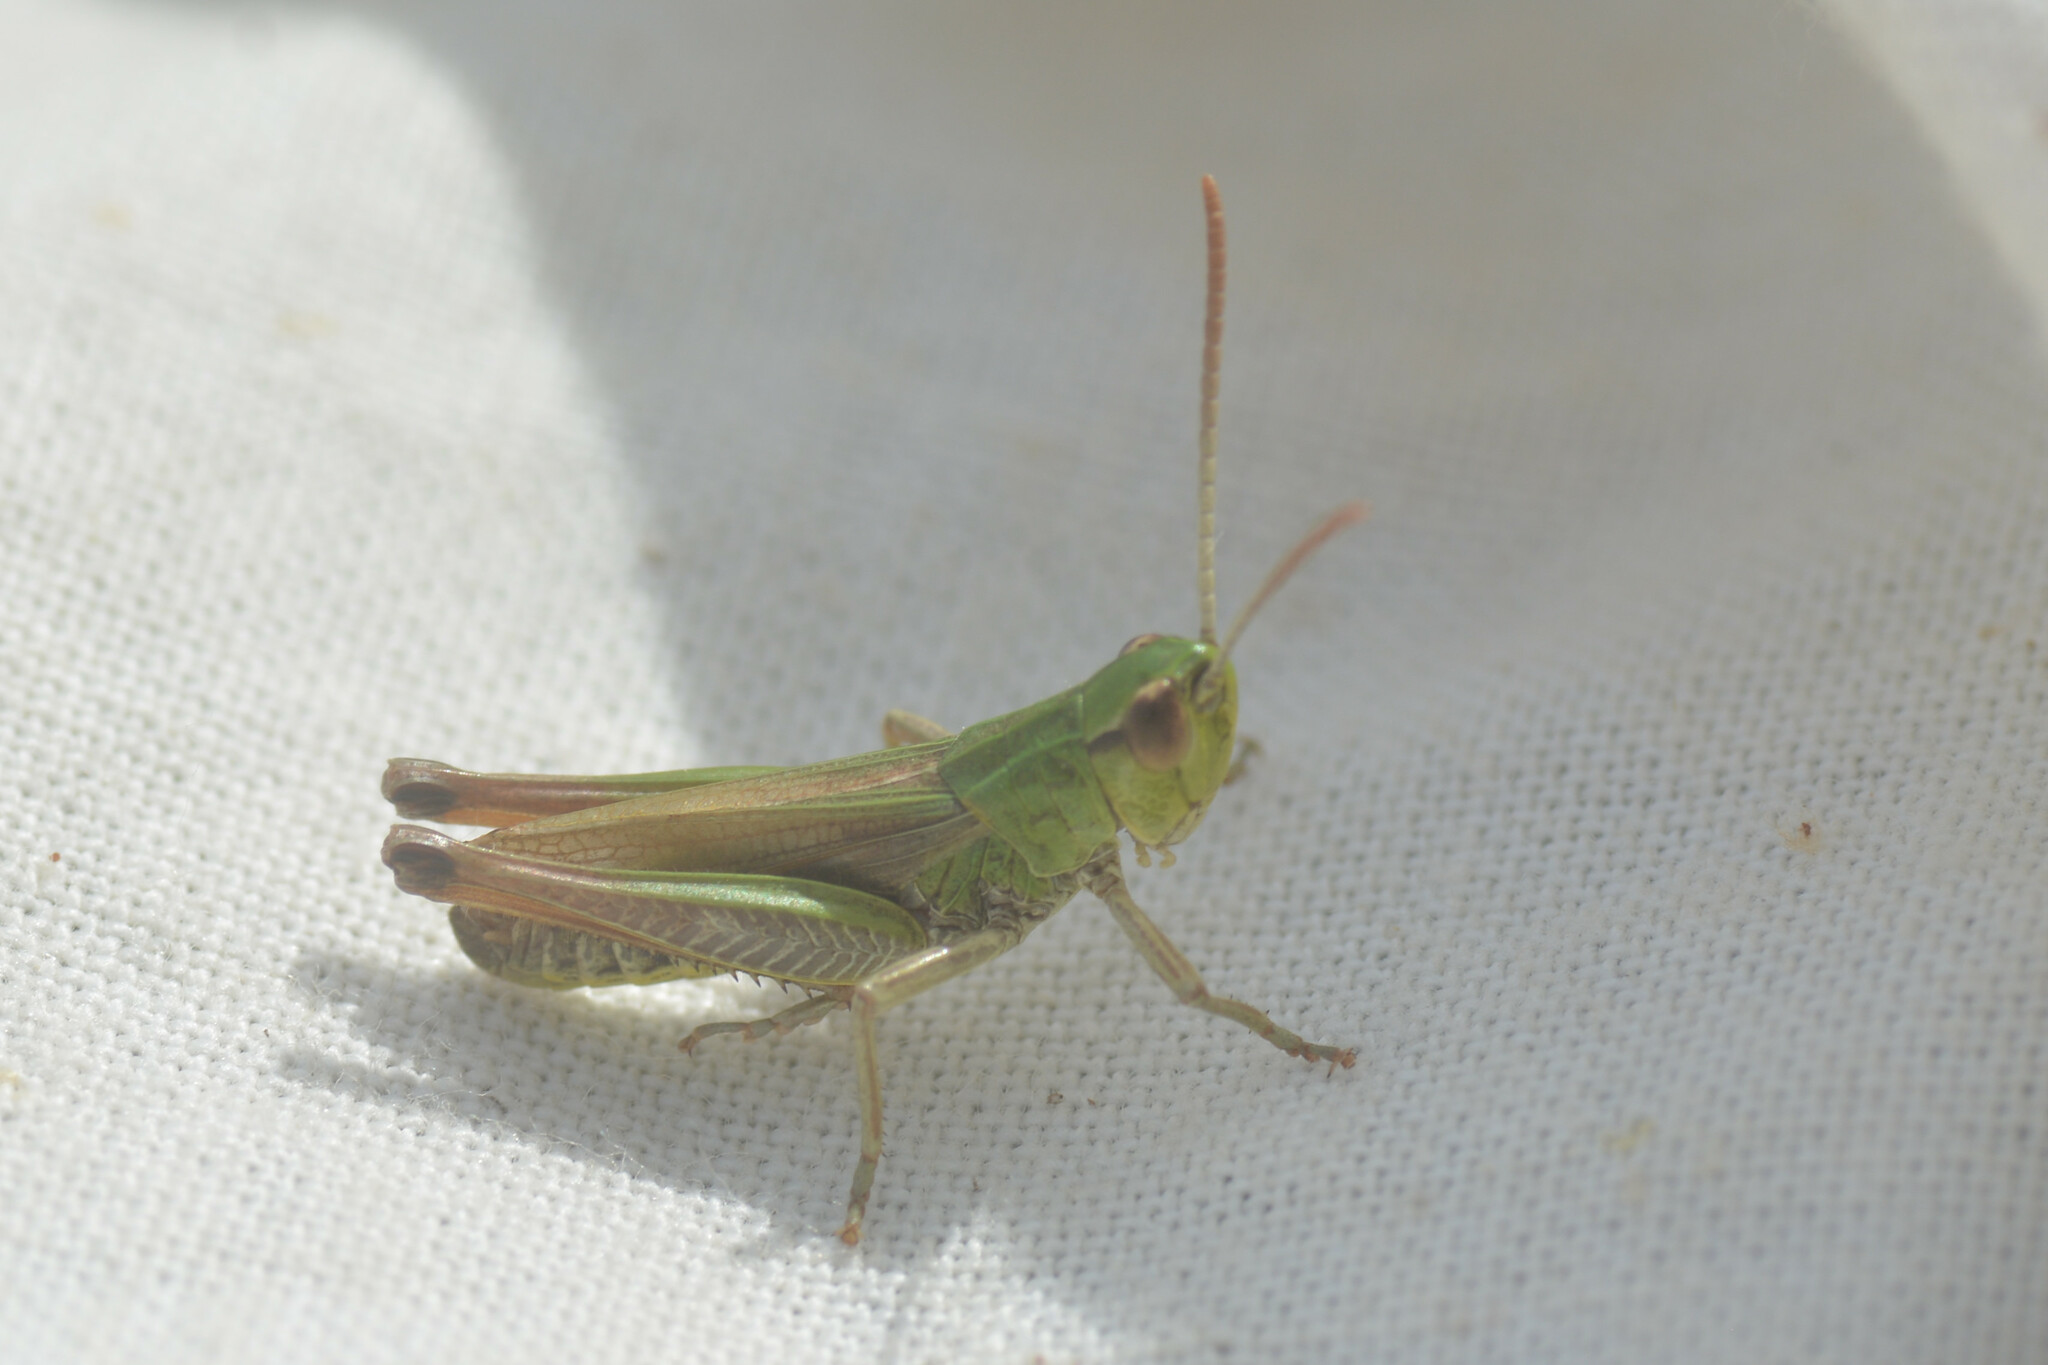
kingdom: Animalia
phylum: Arthropoda
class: Insecta
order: Orthoptera
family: Acrididae
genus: Pseudochorthippus
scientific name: Pseudochorthippus parallelus
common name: Meadow grasshopper
